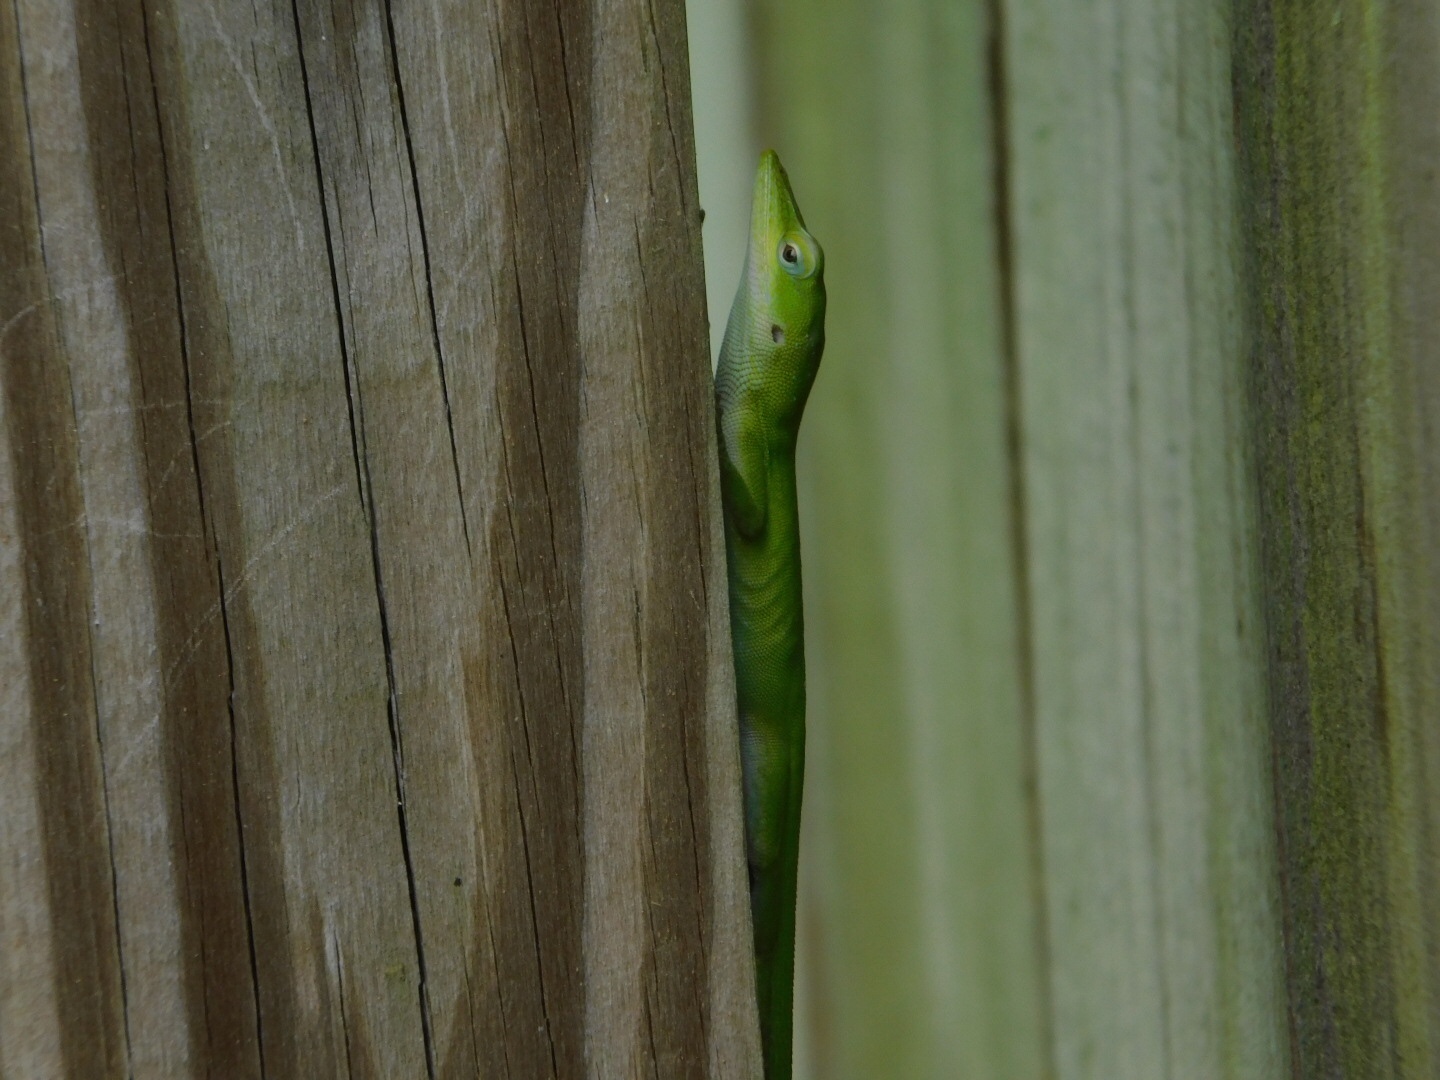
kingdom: Animalia
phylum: Chordata
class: Squamata
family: Dactyloidae
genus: Anolis
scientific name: Anolis carolinensis
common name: Green anole
